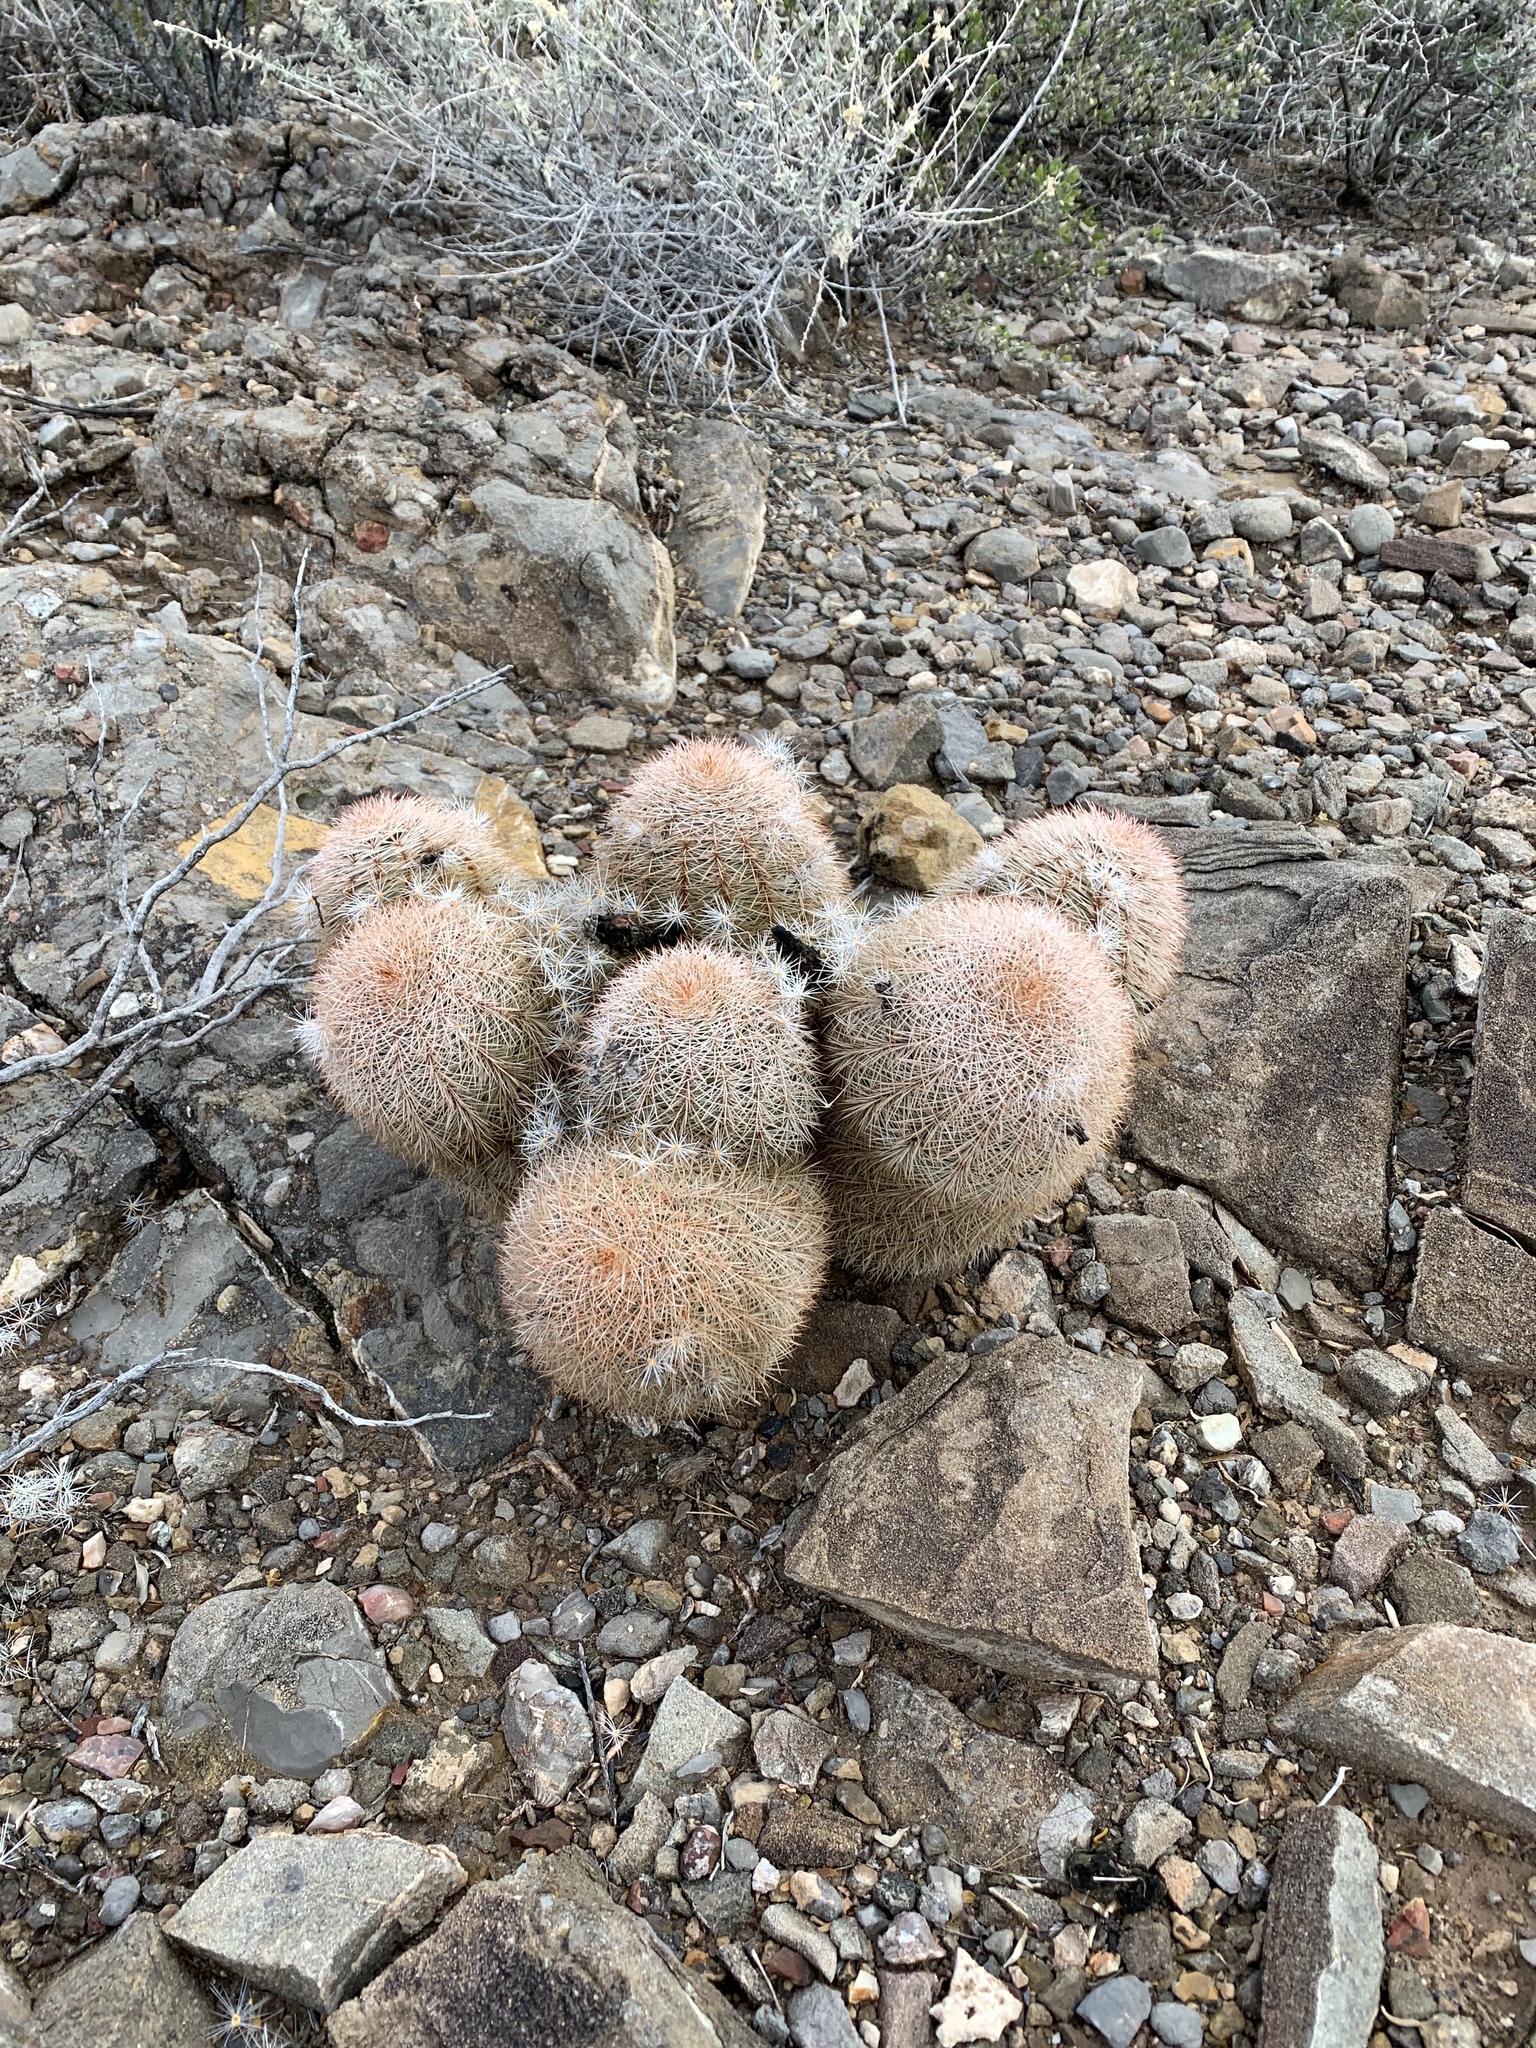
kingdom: Plantae
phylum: Tracheophyta
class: Magnoliopsida
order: Caryophyllales
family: Cactaceae
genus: Echinocereus
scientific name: Echinocereus dasyacanthus
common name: Spiny hedgehog cactus
